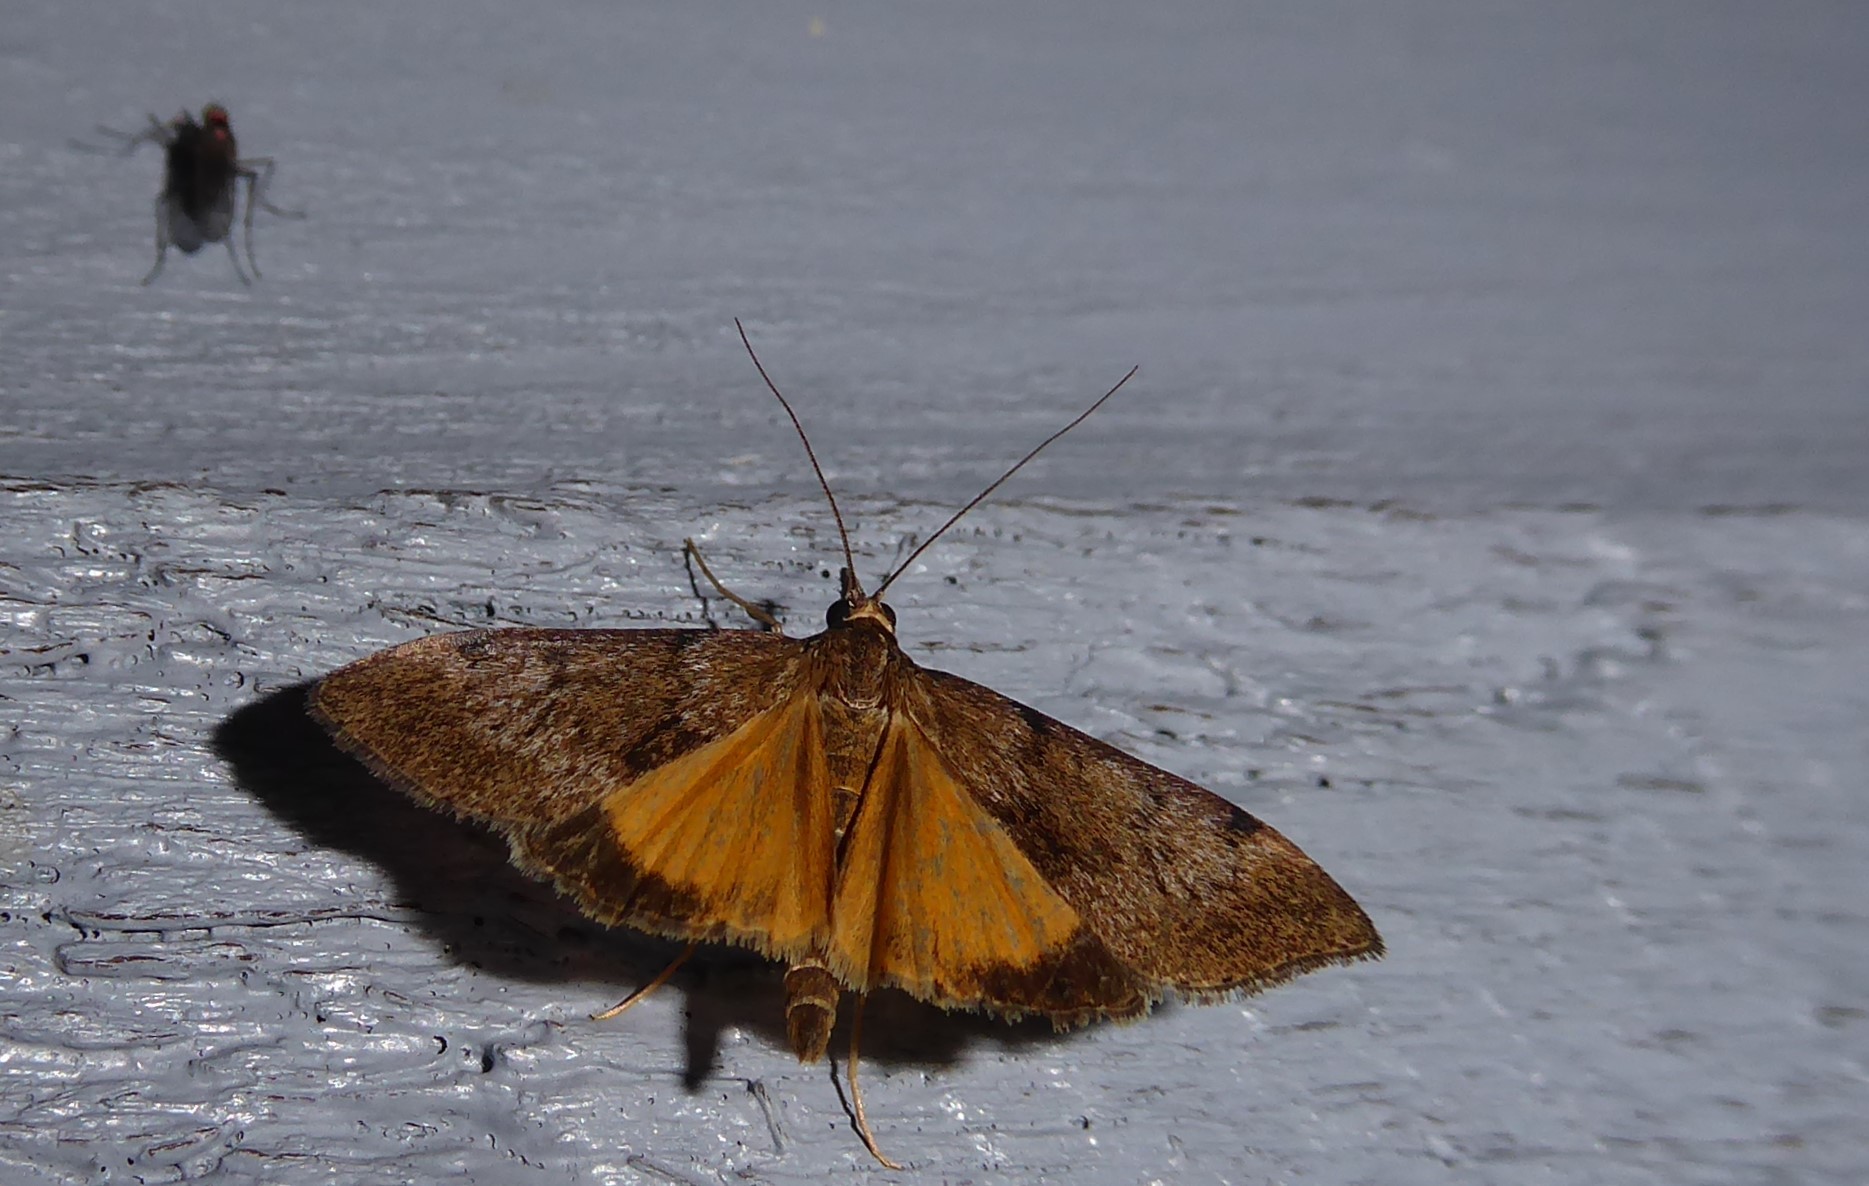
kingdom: Animalia
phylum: Arthropoda
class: Insecta
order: Lepidoptera
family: Crambidae
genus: Uresiphita
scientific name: Uresiphita
